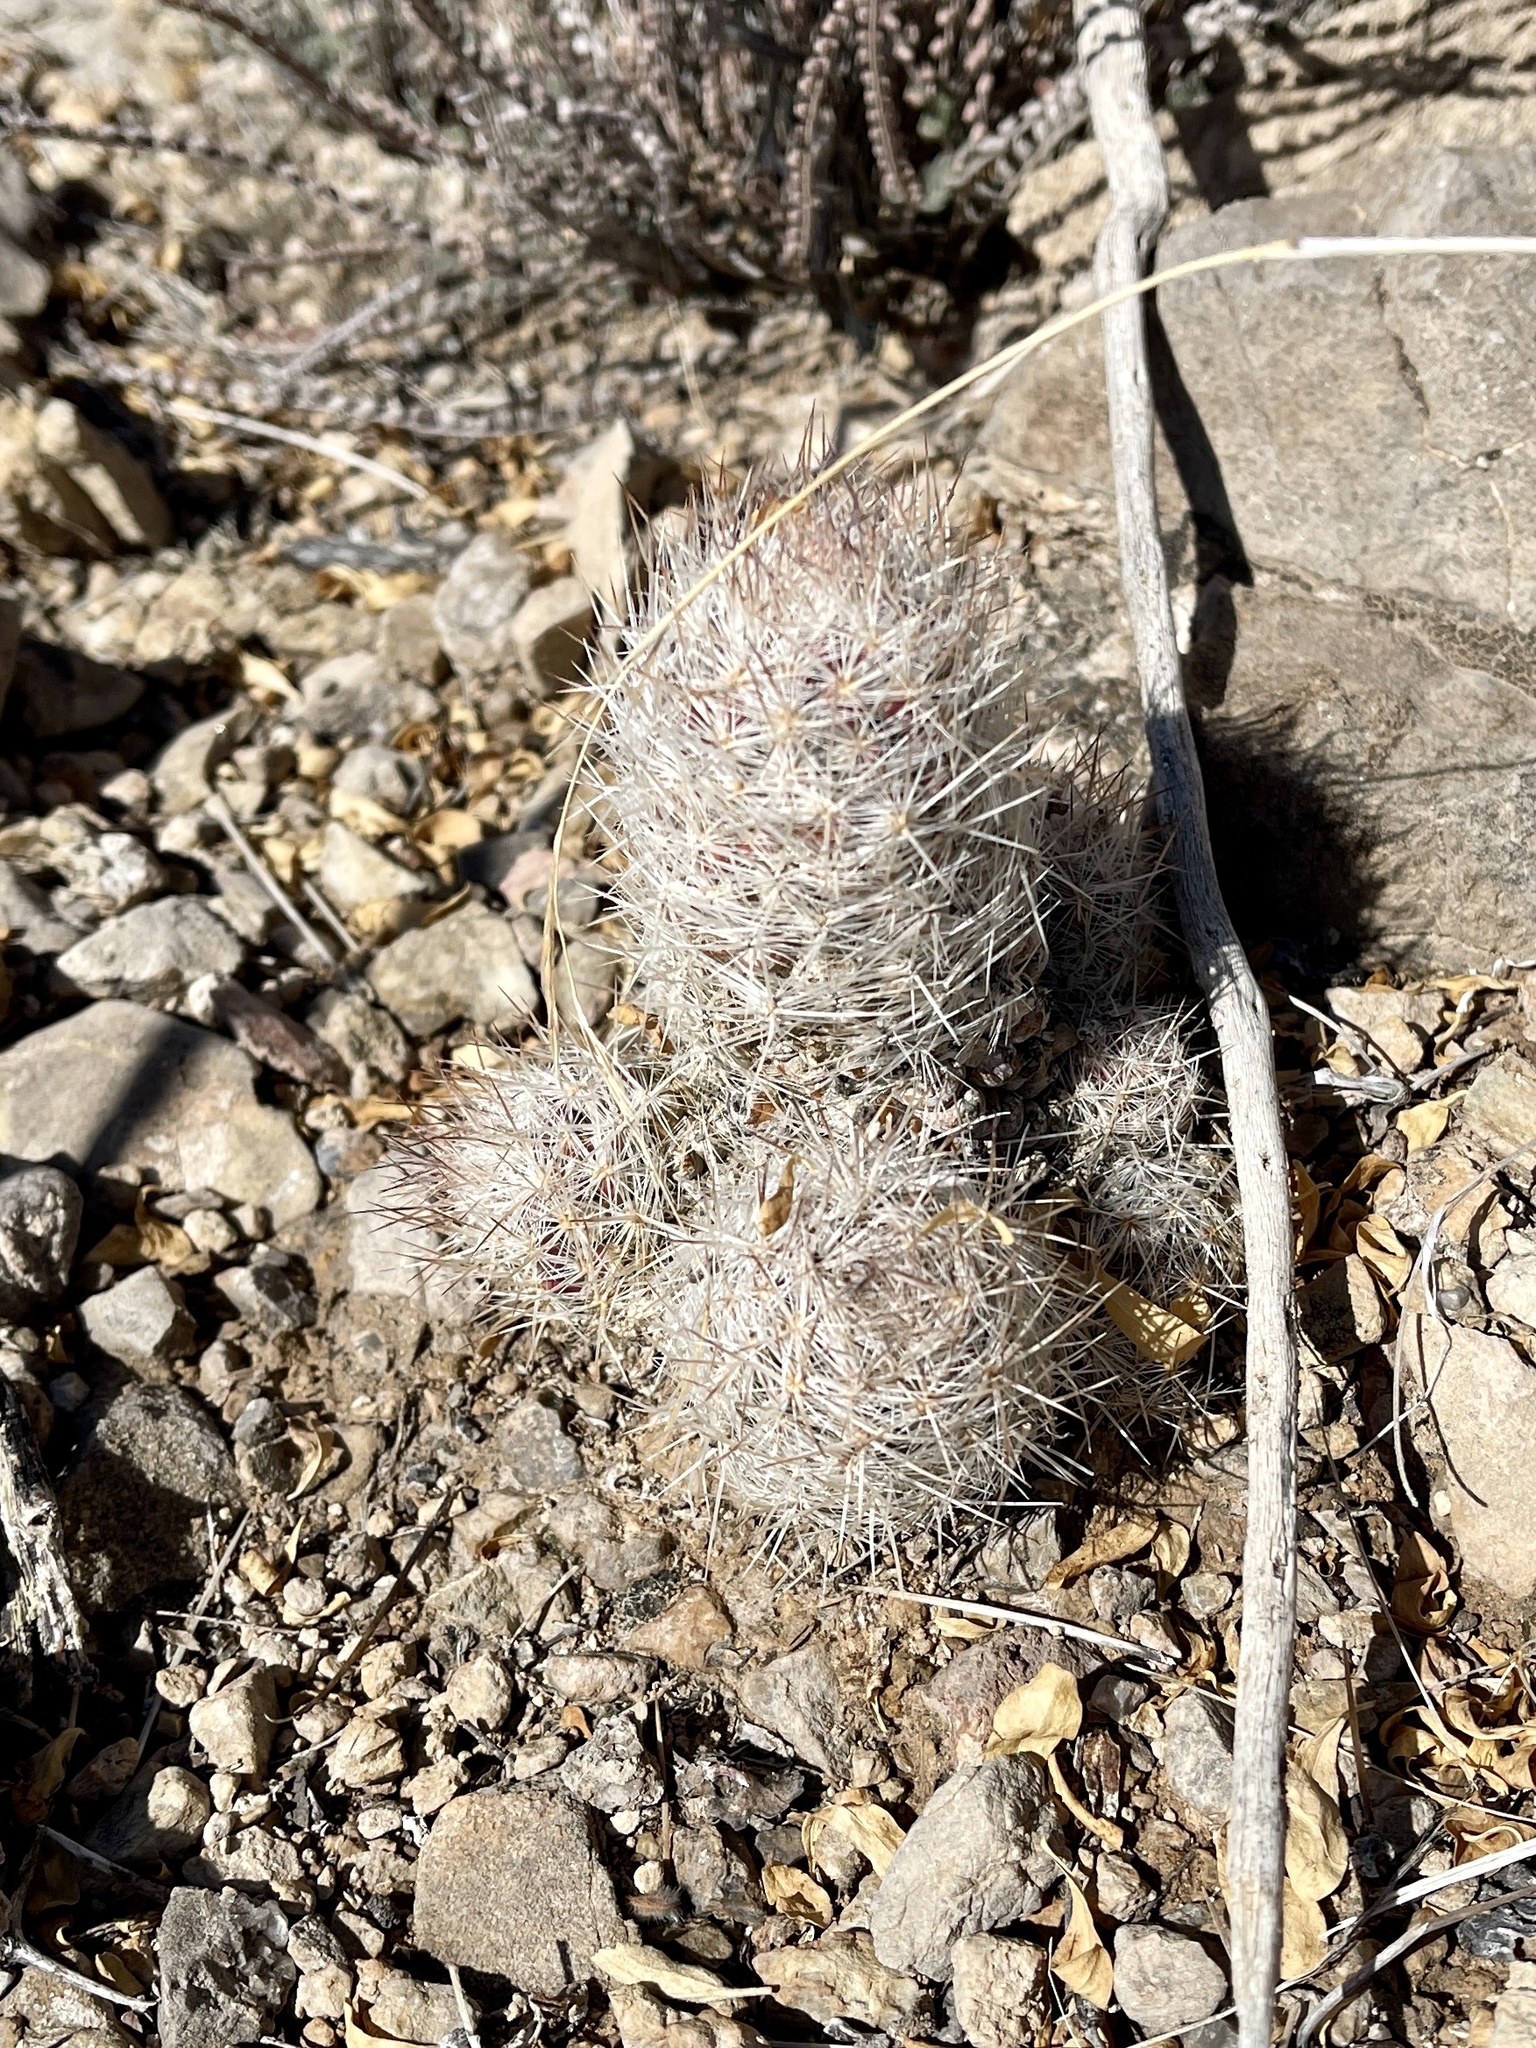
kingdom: Plantae
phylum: Tracheophyta
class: Magnoliopsida
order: Caryophyllales
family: Cactaceae
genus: Pelecyphora
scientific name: Pelecyphora tuberculosa
